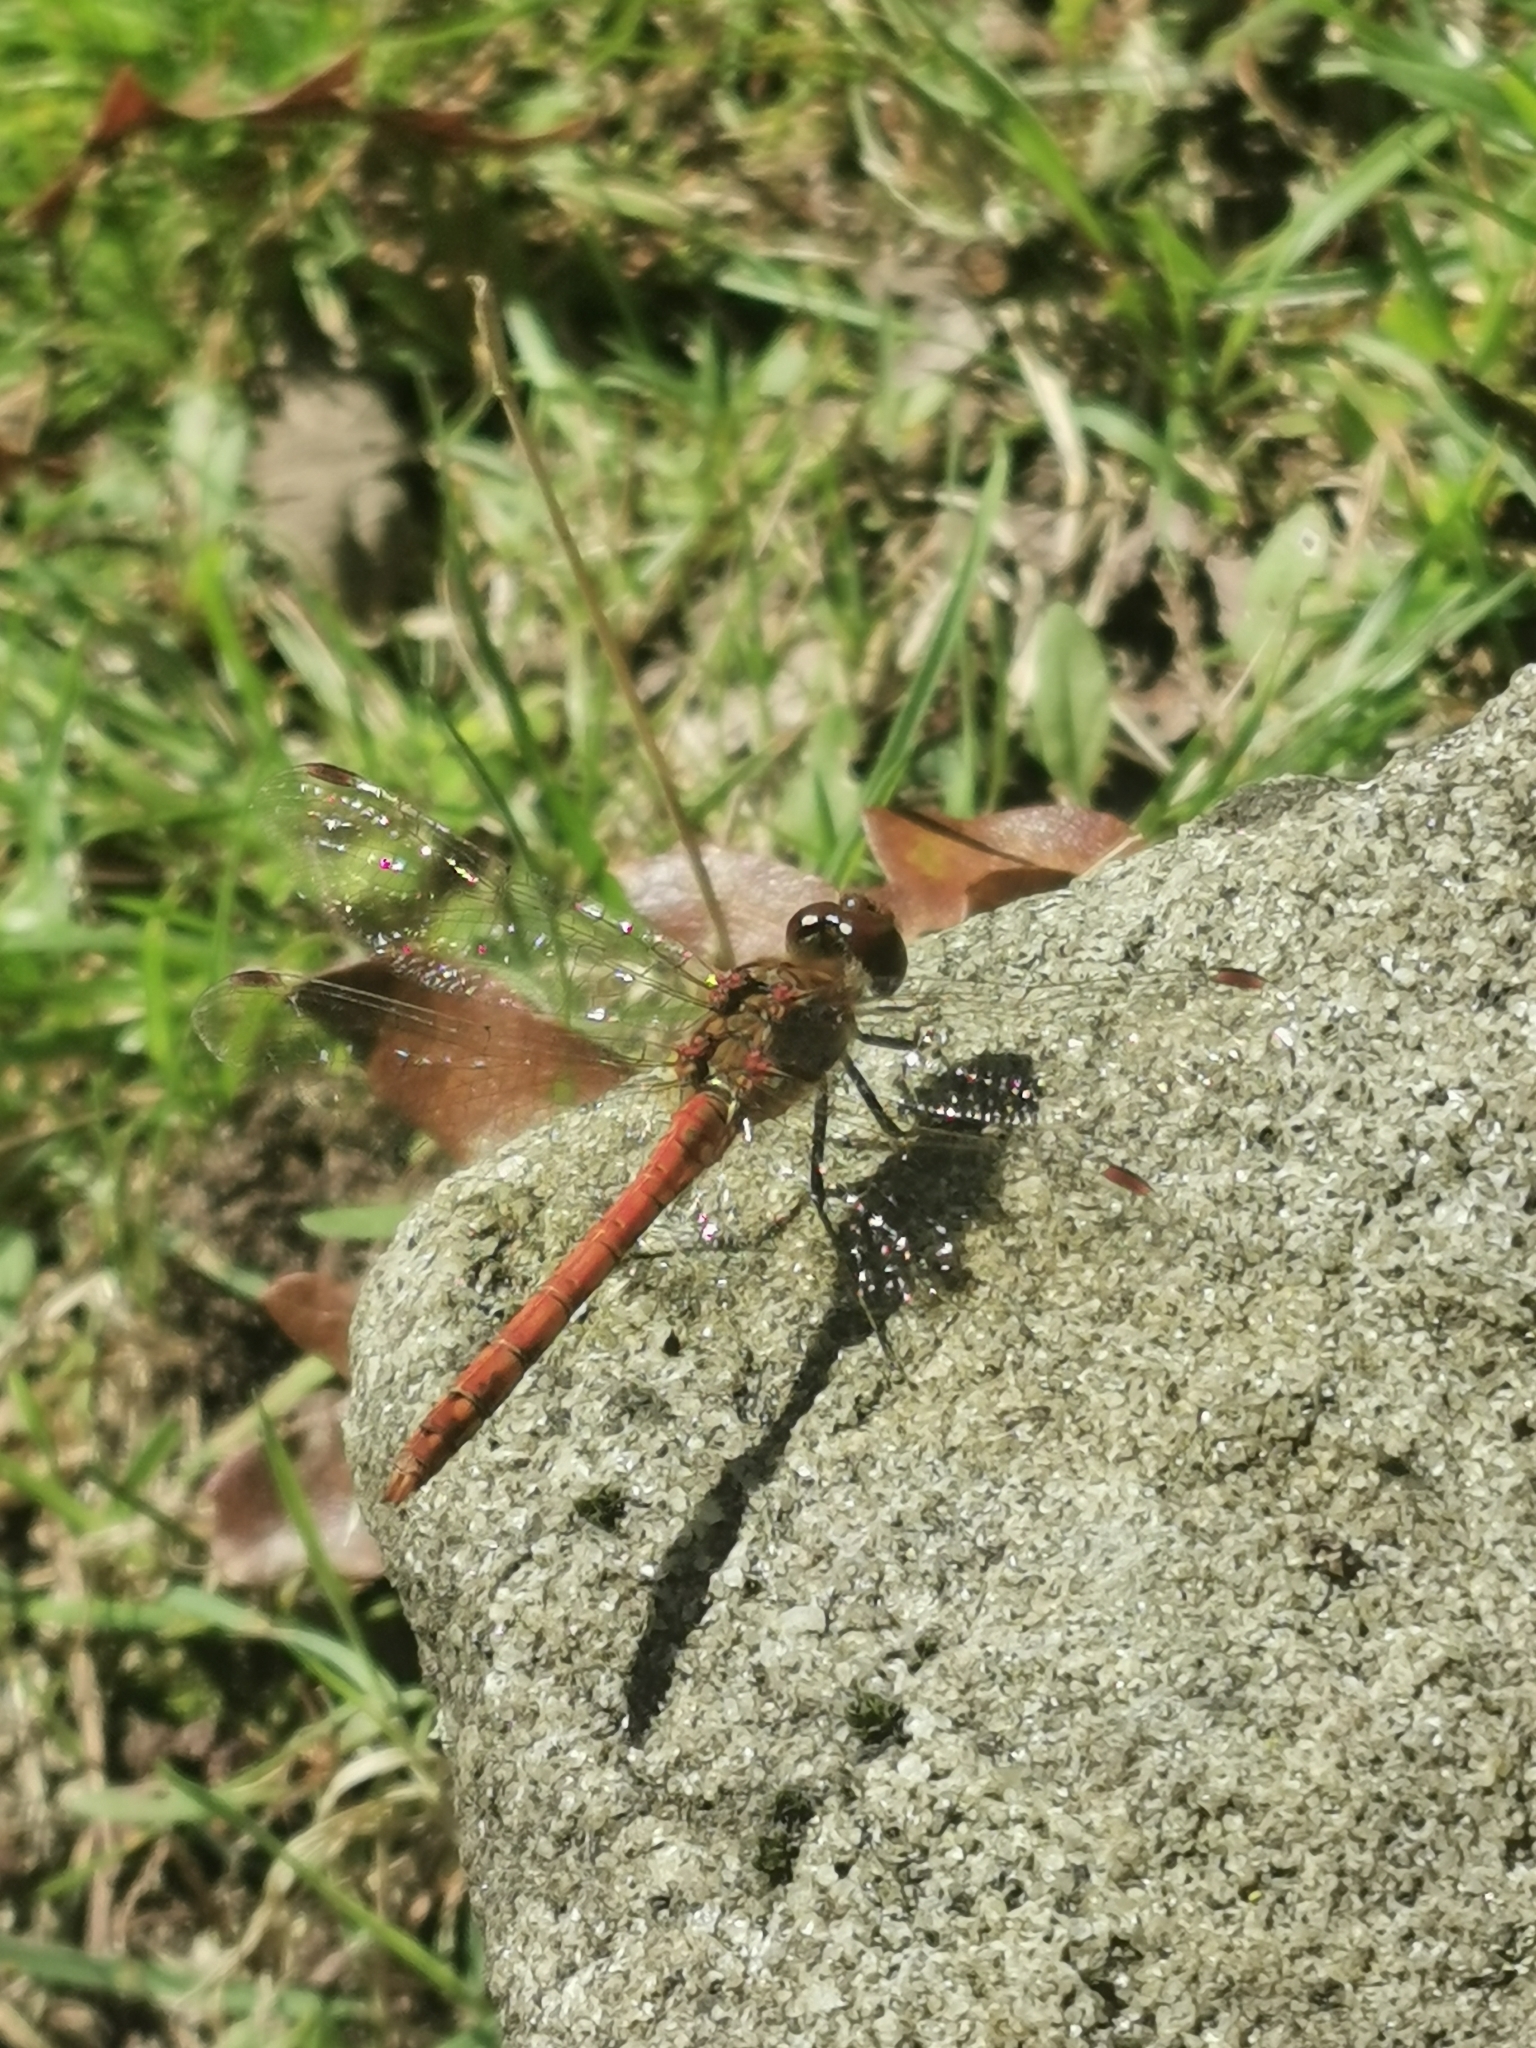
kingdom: Animalia
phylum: Arthropoda
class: Insecta
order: Odonata
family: Libellulidae
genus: Sympetrum
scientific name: Sympetrum striolatum
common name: Common darter
